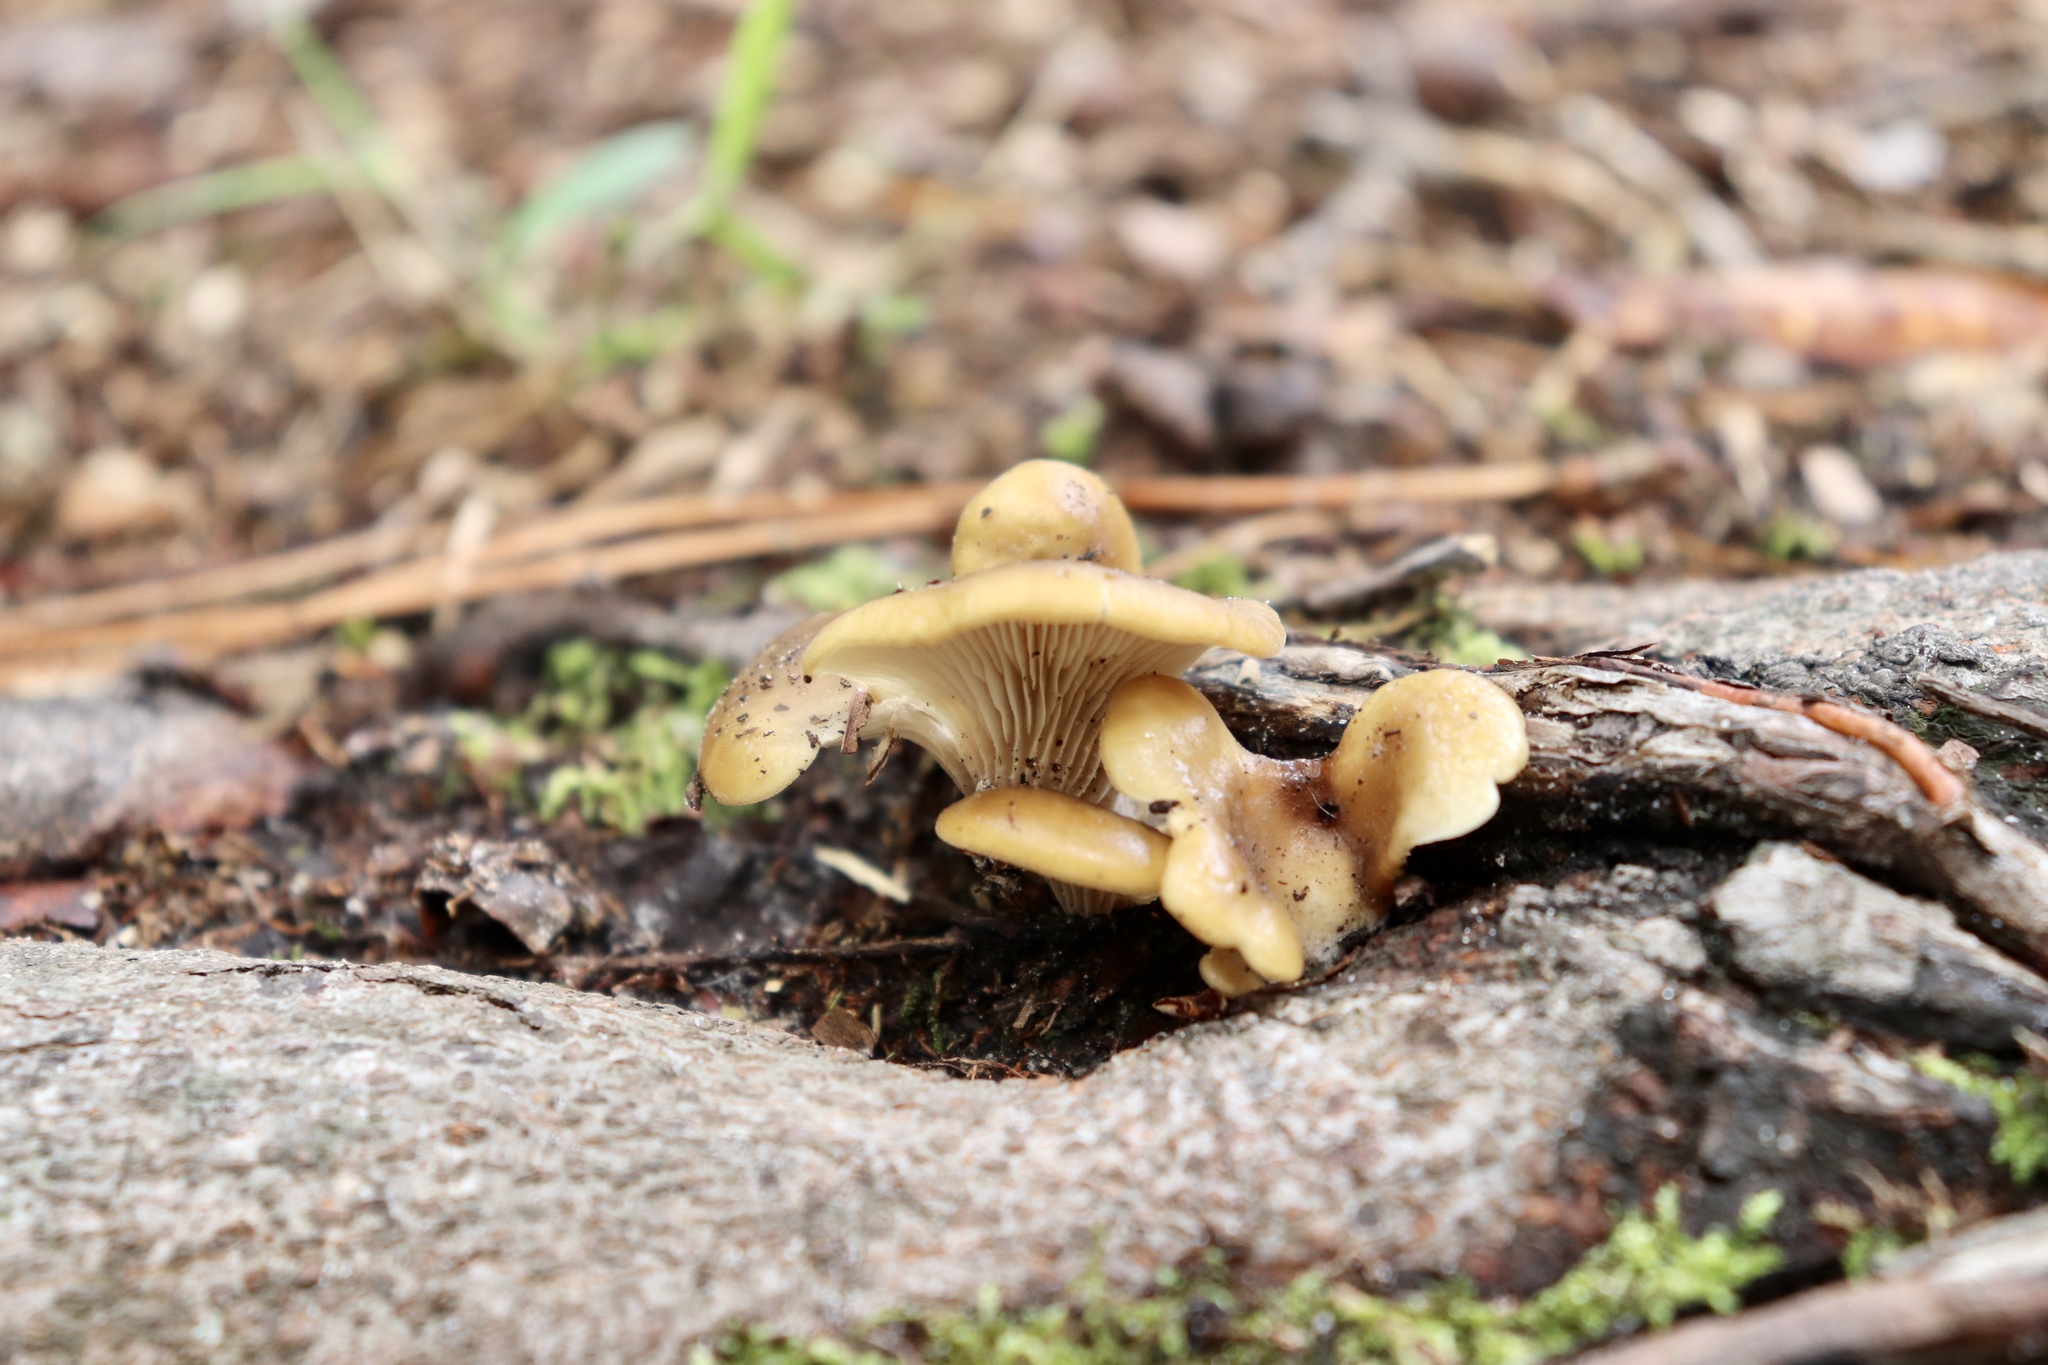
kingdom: Fungi
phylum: Basidiomycota
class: Agaricomycetes
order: Agaricales
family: Pleurotaceae
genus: Hohenbuehelia
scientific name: Hohenbuehelia petaloides
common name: Shoehorn oyster
